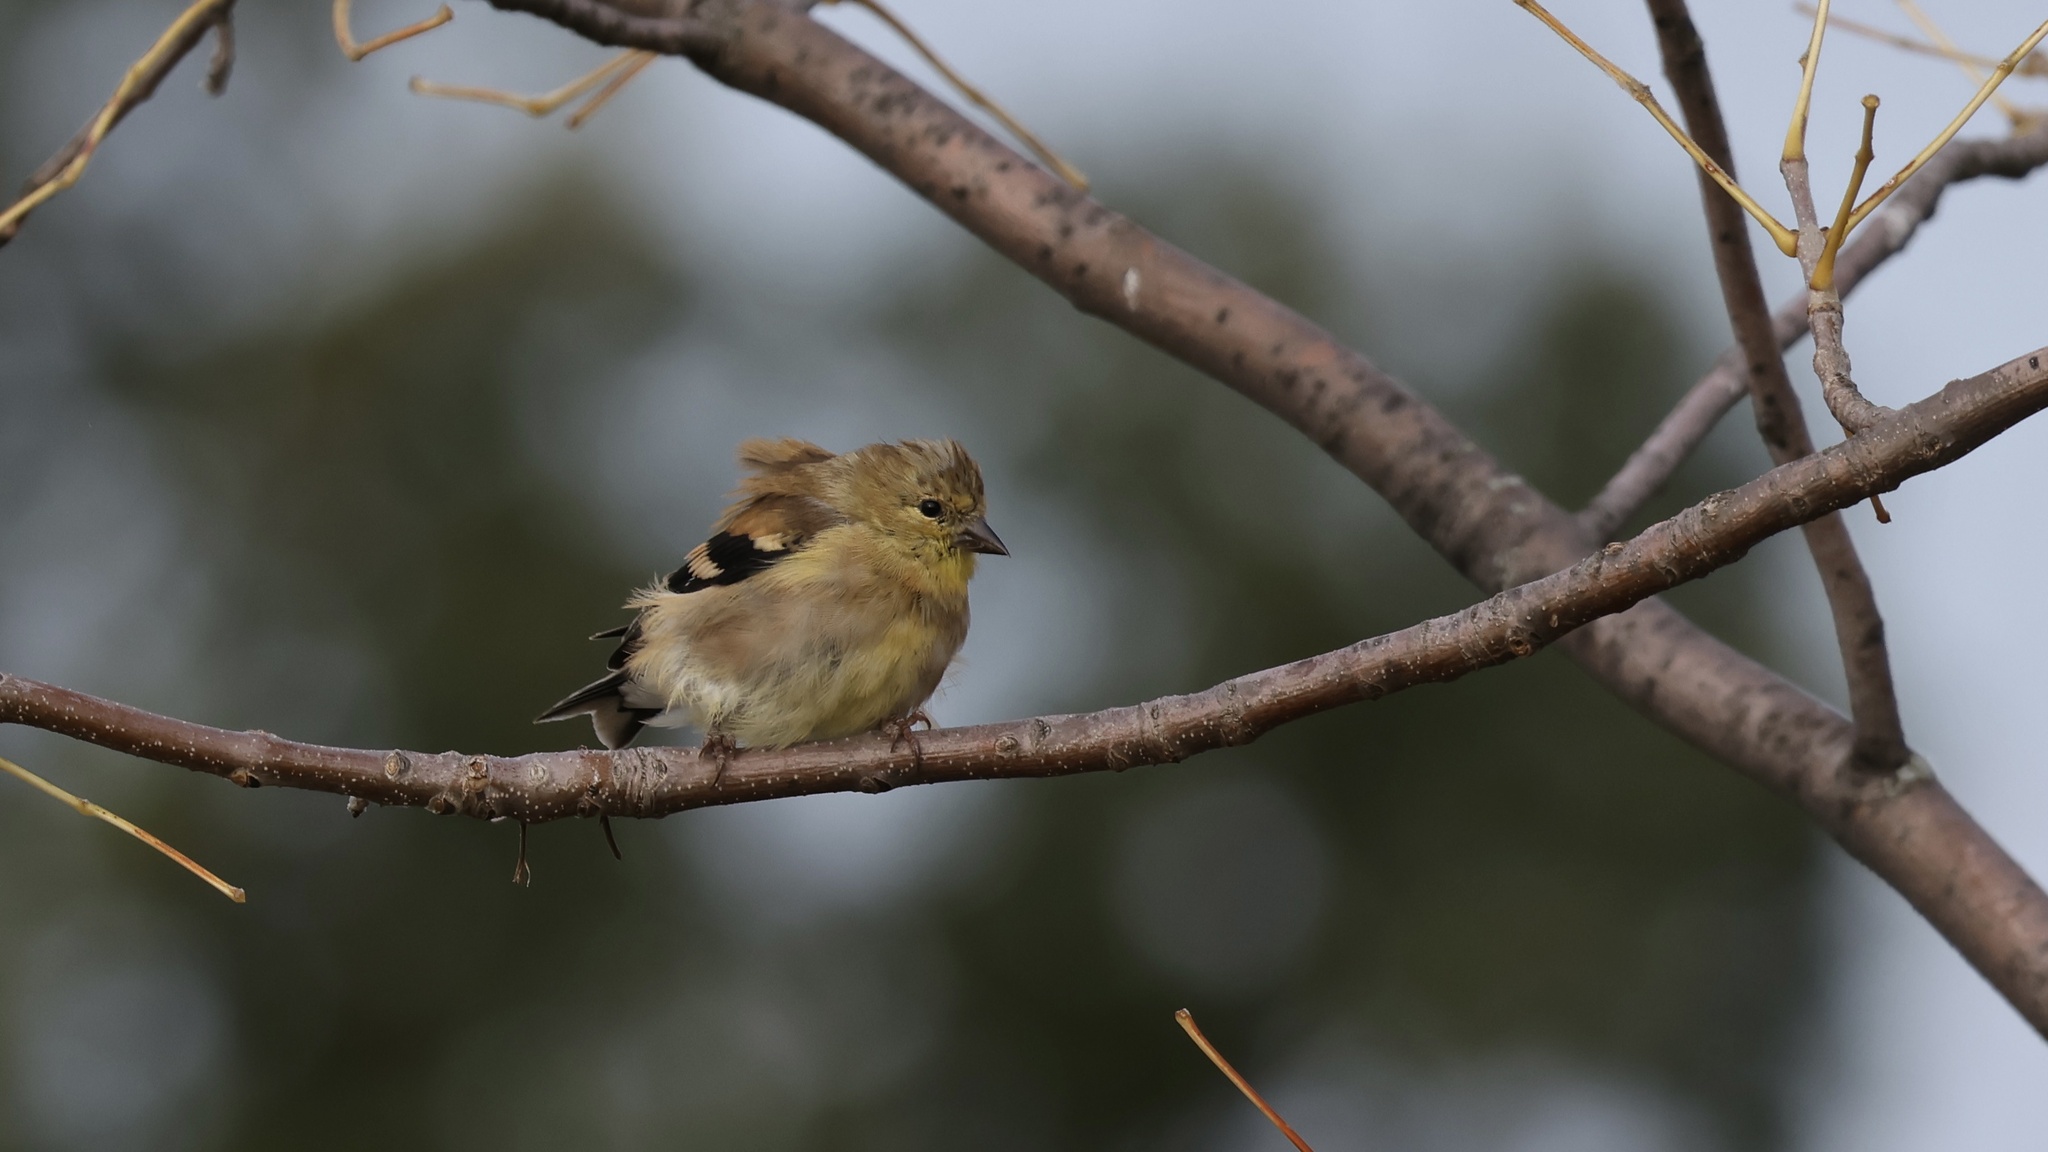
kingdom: Animalia
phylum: Chordata
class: Aves
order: Passeriformes
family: Fringillidae
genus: Spinus
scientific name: Spinus tristis
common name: American goldfinch
